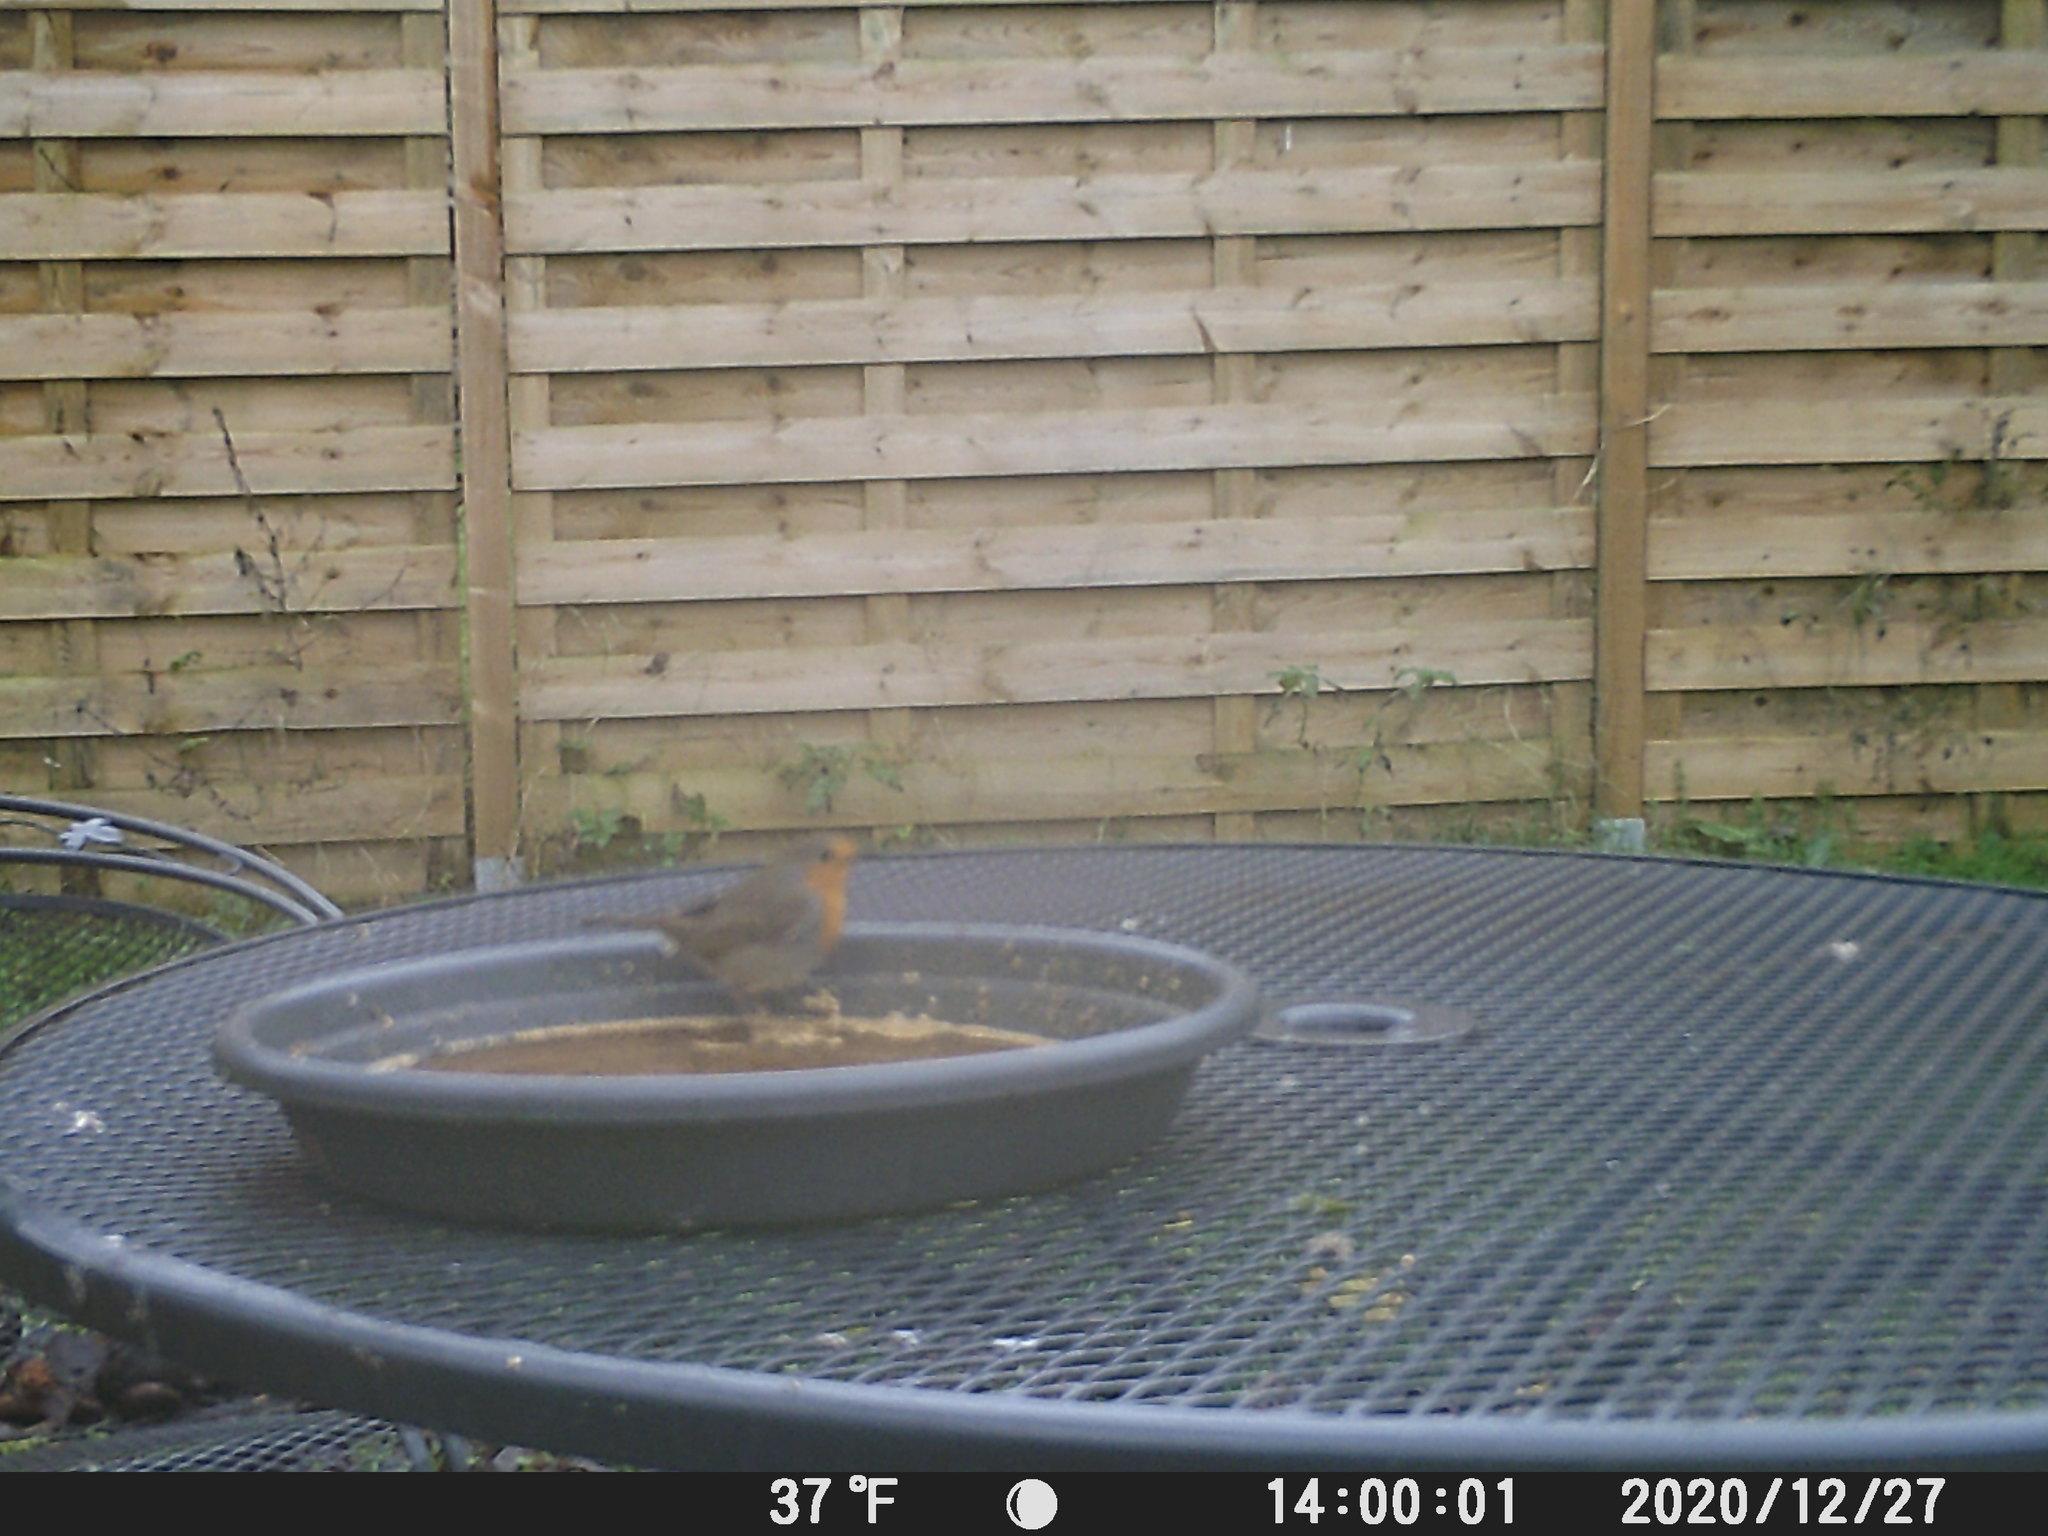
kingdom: Animalia
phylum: Chordata
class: Aves
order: Passeriformes
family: Muscicapidae
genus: Erithacus
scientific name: Erithacus rubecula
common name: European robin
